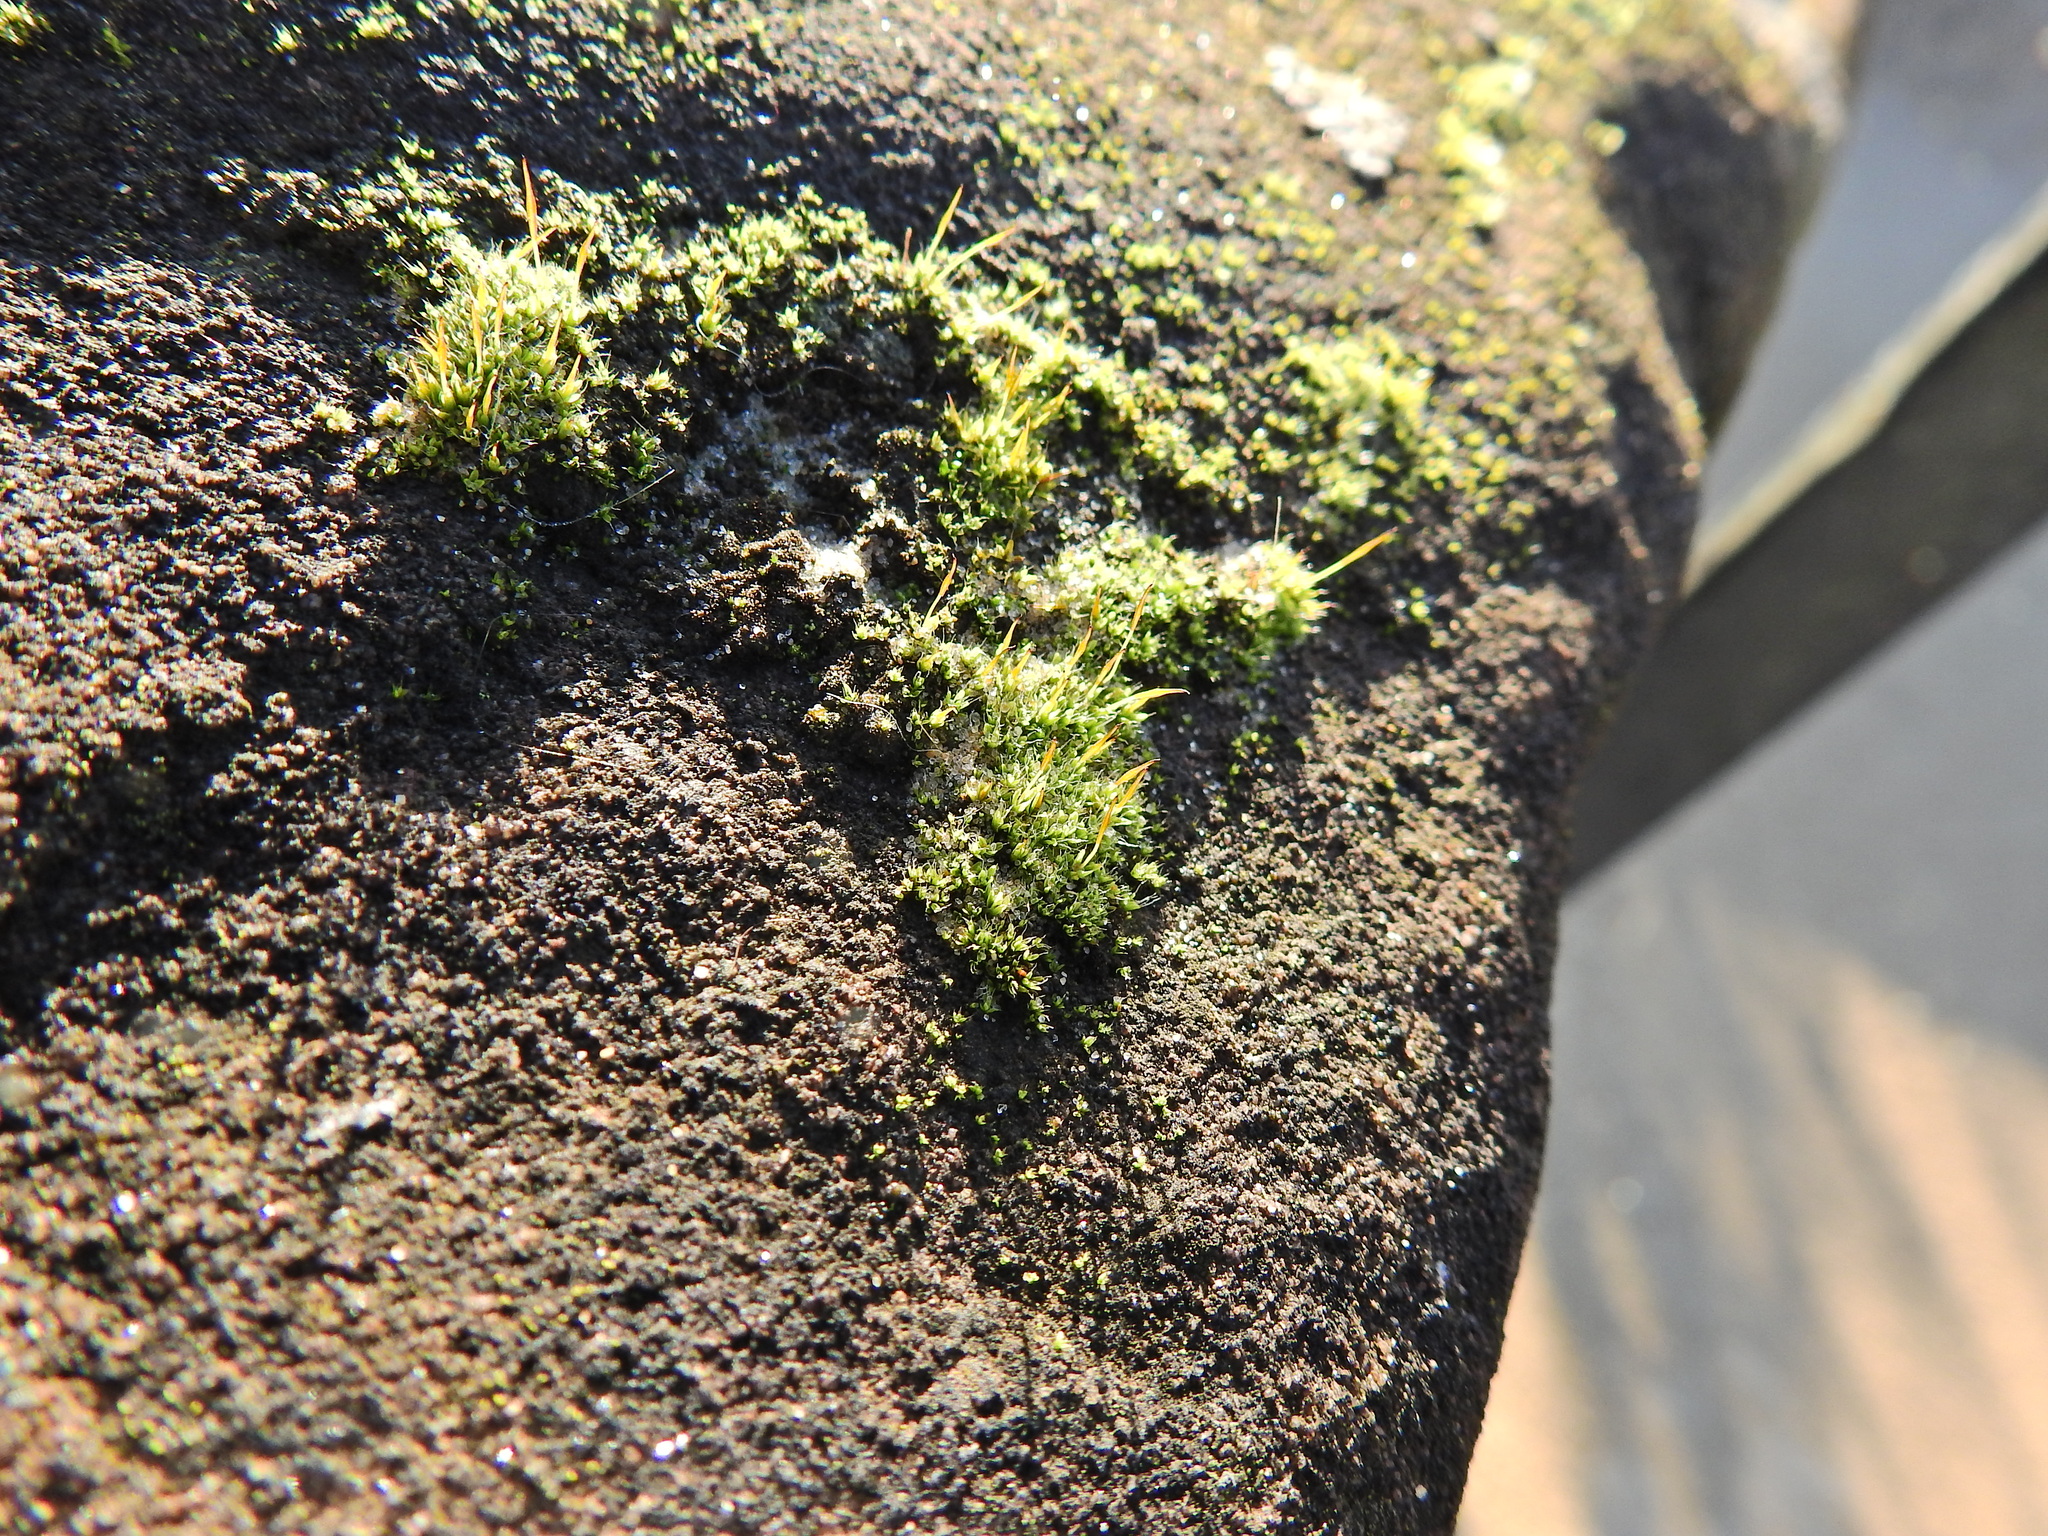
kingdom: Plantae
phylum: Bryophyta
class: Bryopsida
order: Pottiales
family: Pottiaceae
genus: Tortula
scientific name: Tortula muralis
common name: Wall screw-moss
